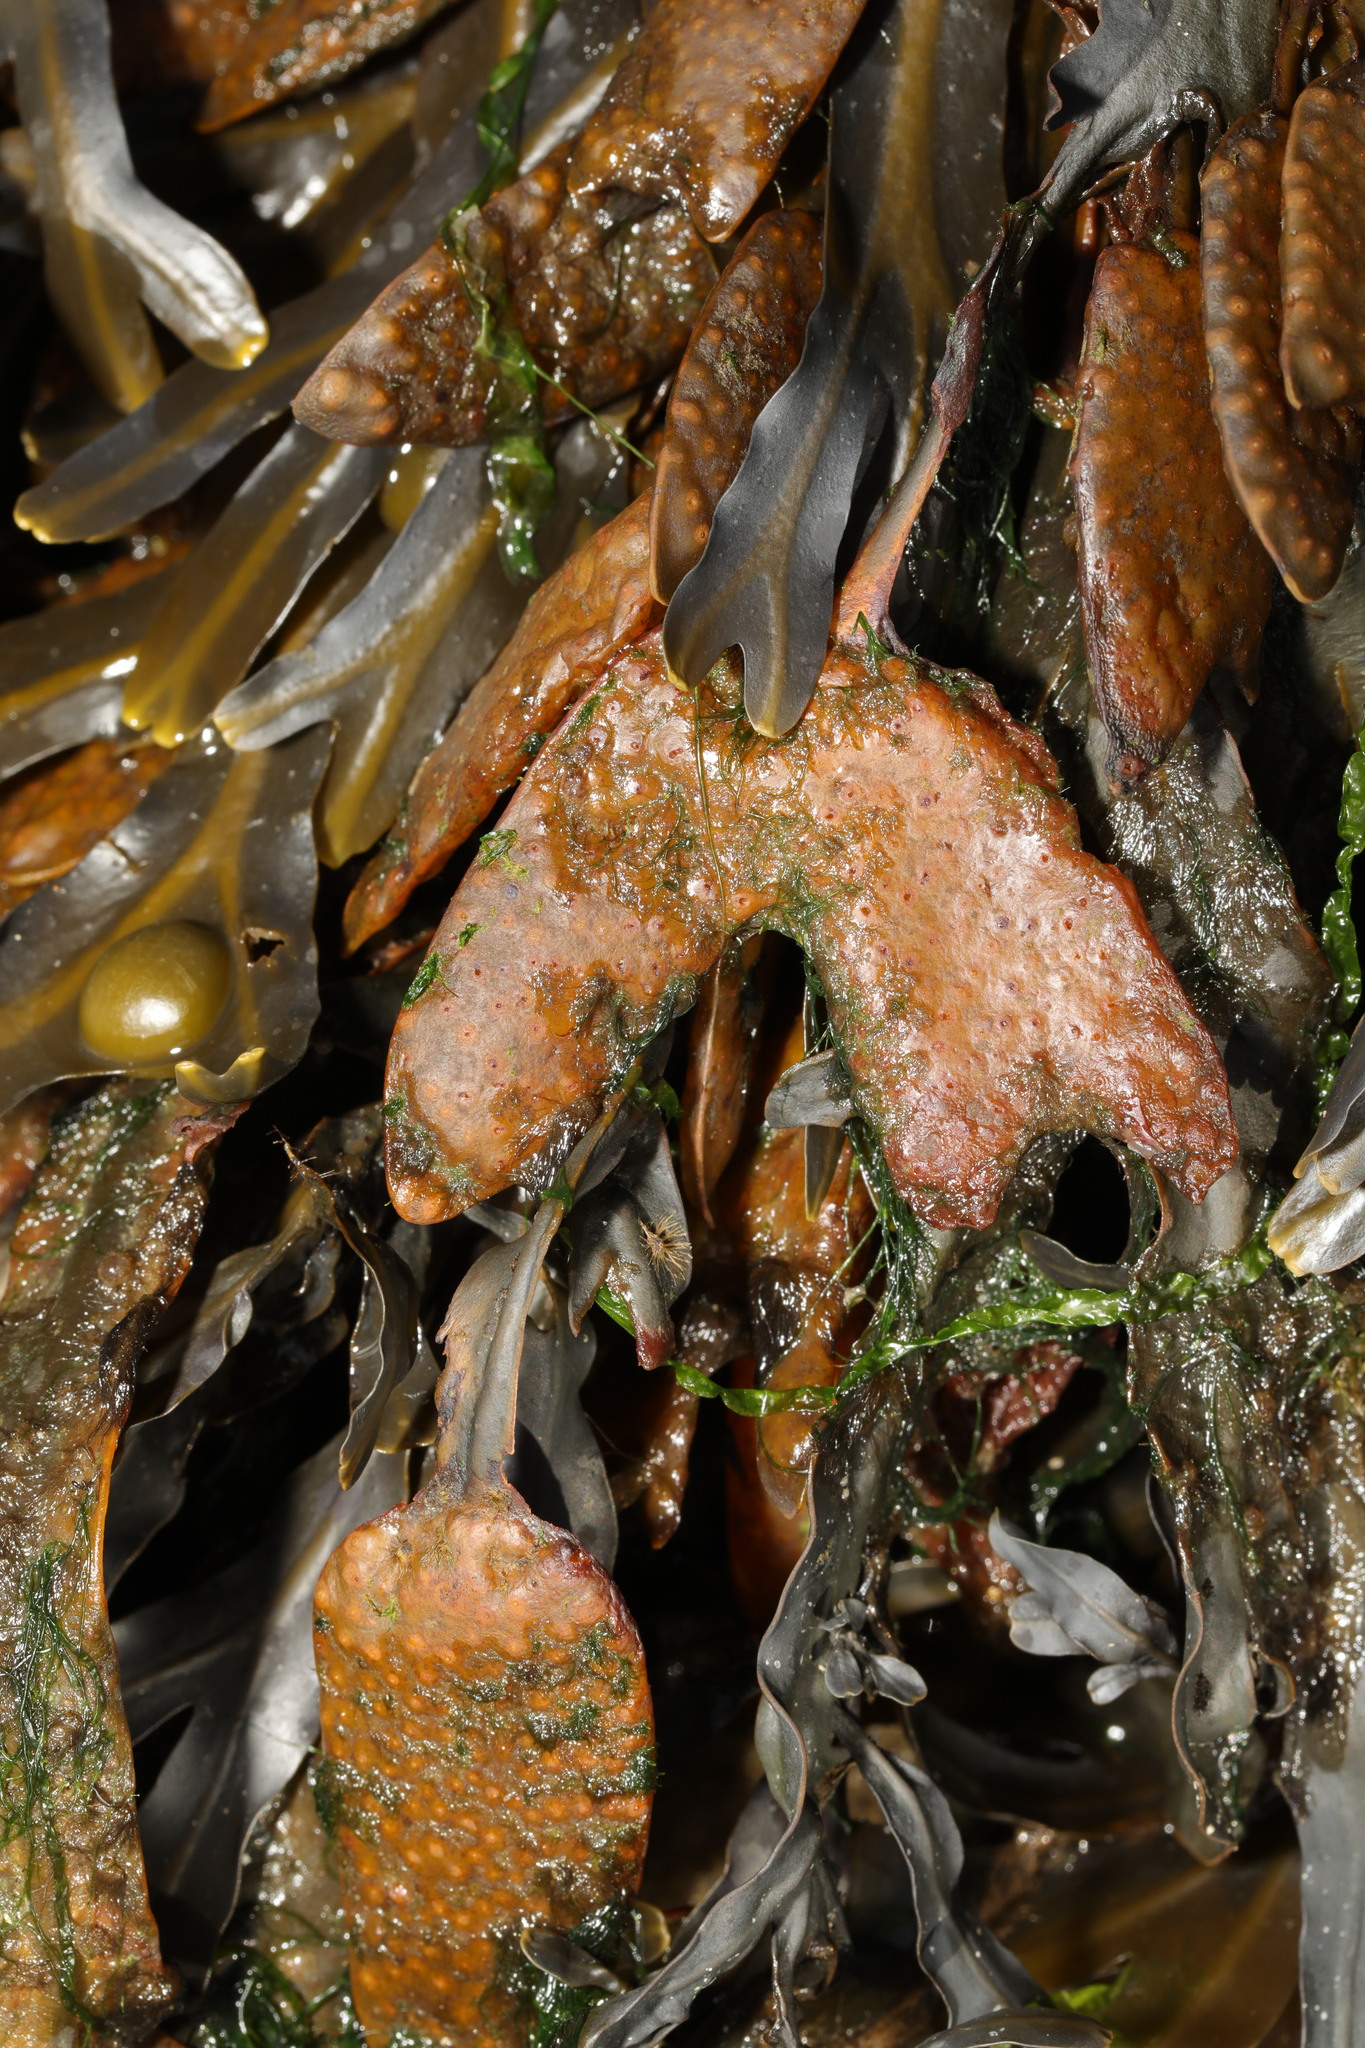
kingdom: Chromista
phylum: Ochrophyta
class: Phaeophyceae
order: Fucales
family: Fucaceae
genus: Fucus
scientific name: Fucus vesiculosus
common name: Bladder wrack
